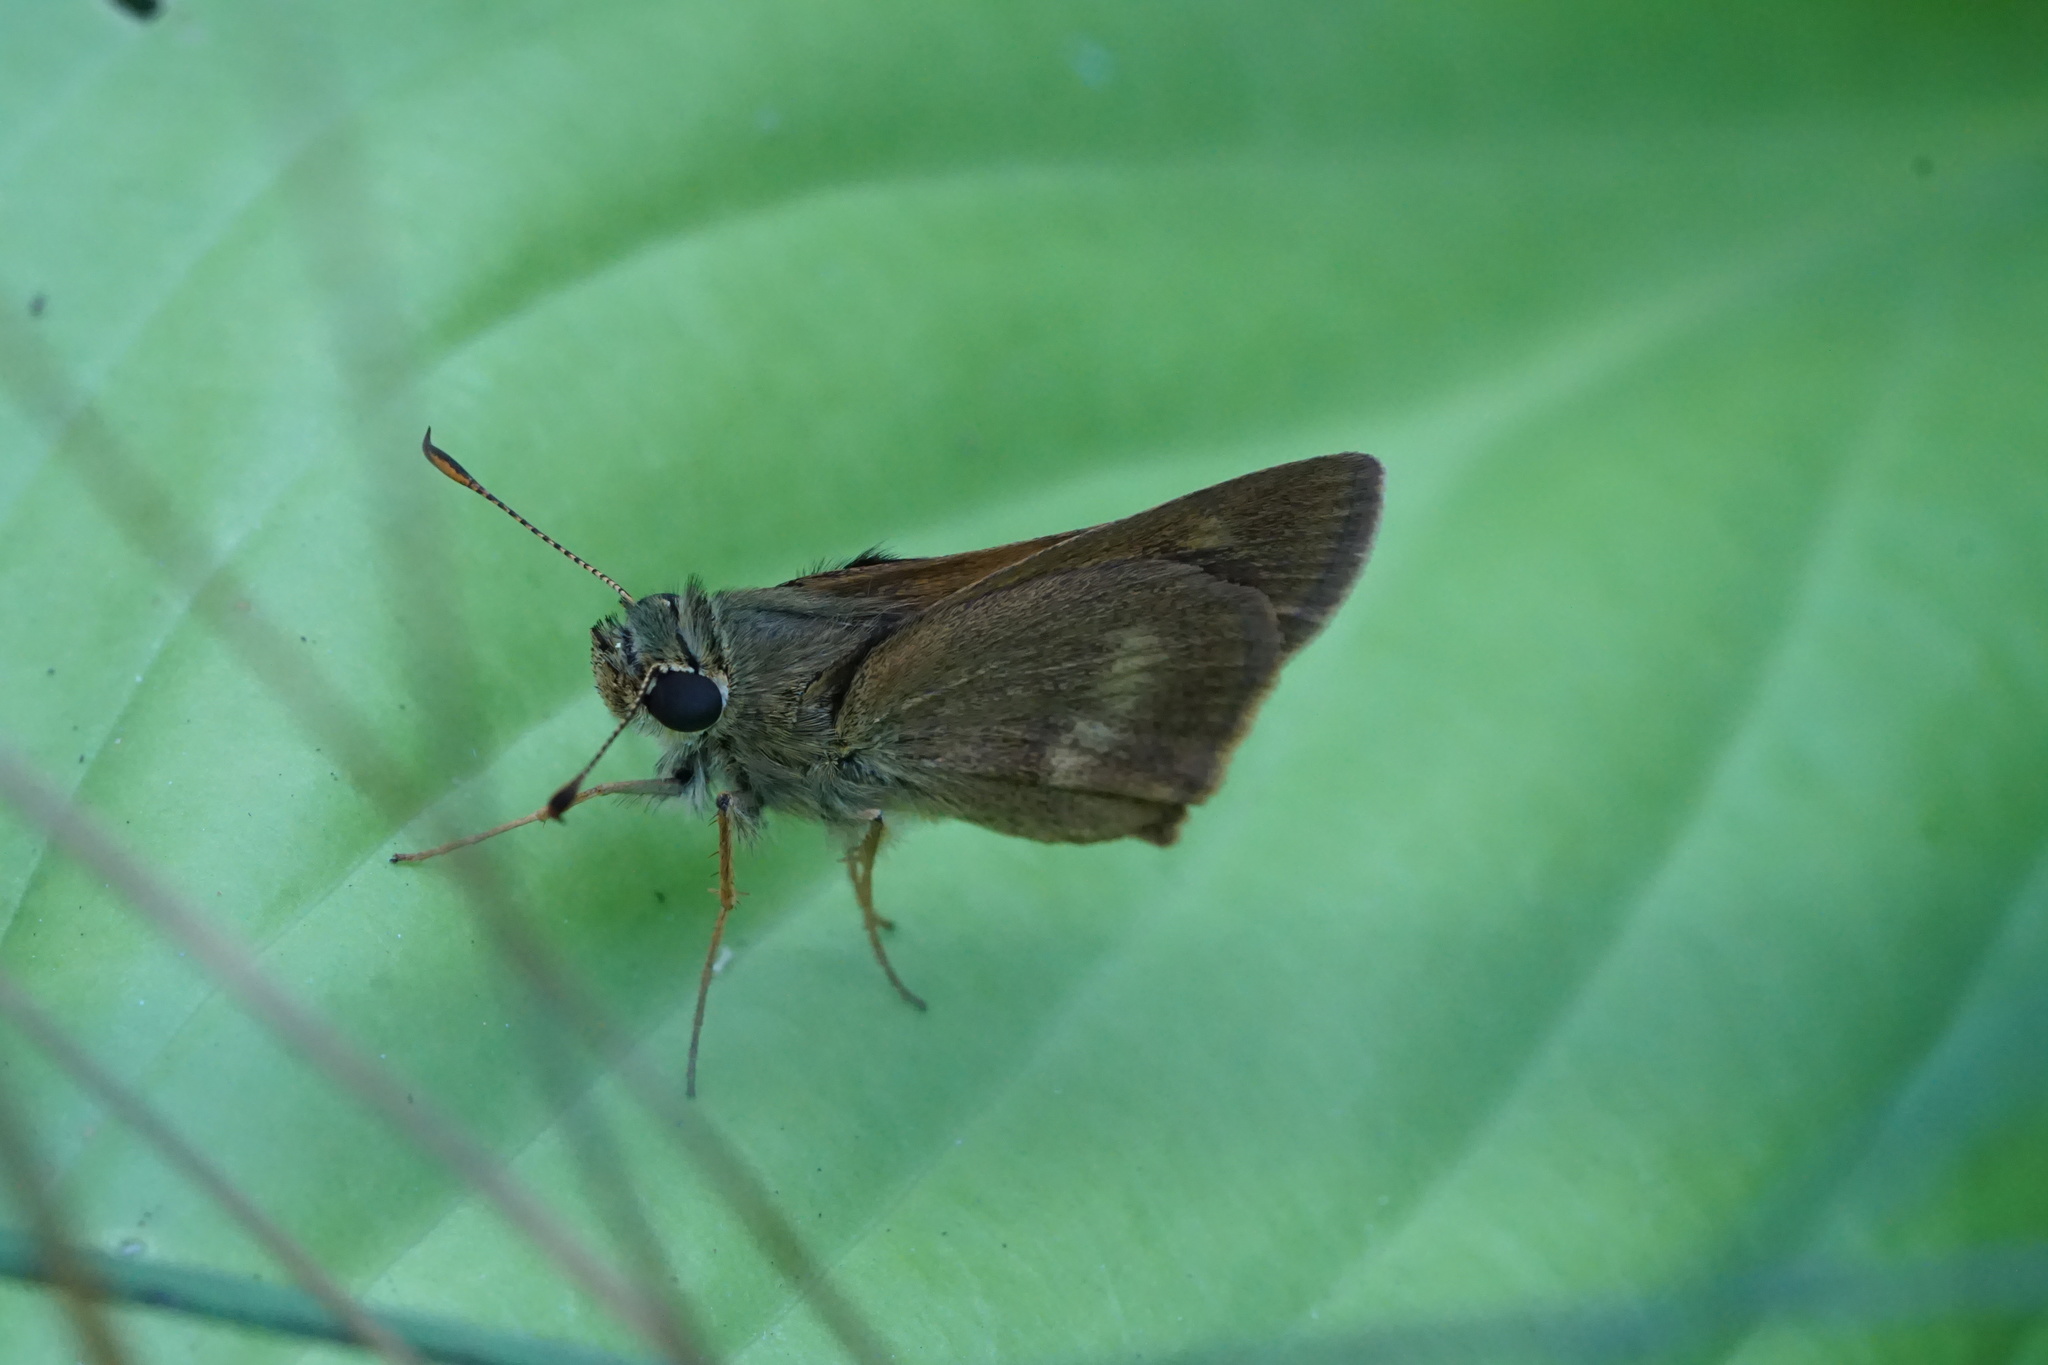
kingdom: Animalia
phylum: Arthropoda
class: Insecta
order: Lepidoptera
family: Hesperiidae
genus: Polites
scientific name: Polites egeremet
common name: Northern broken-dash
